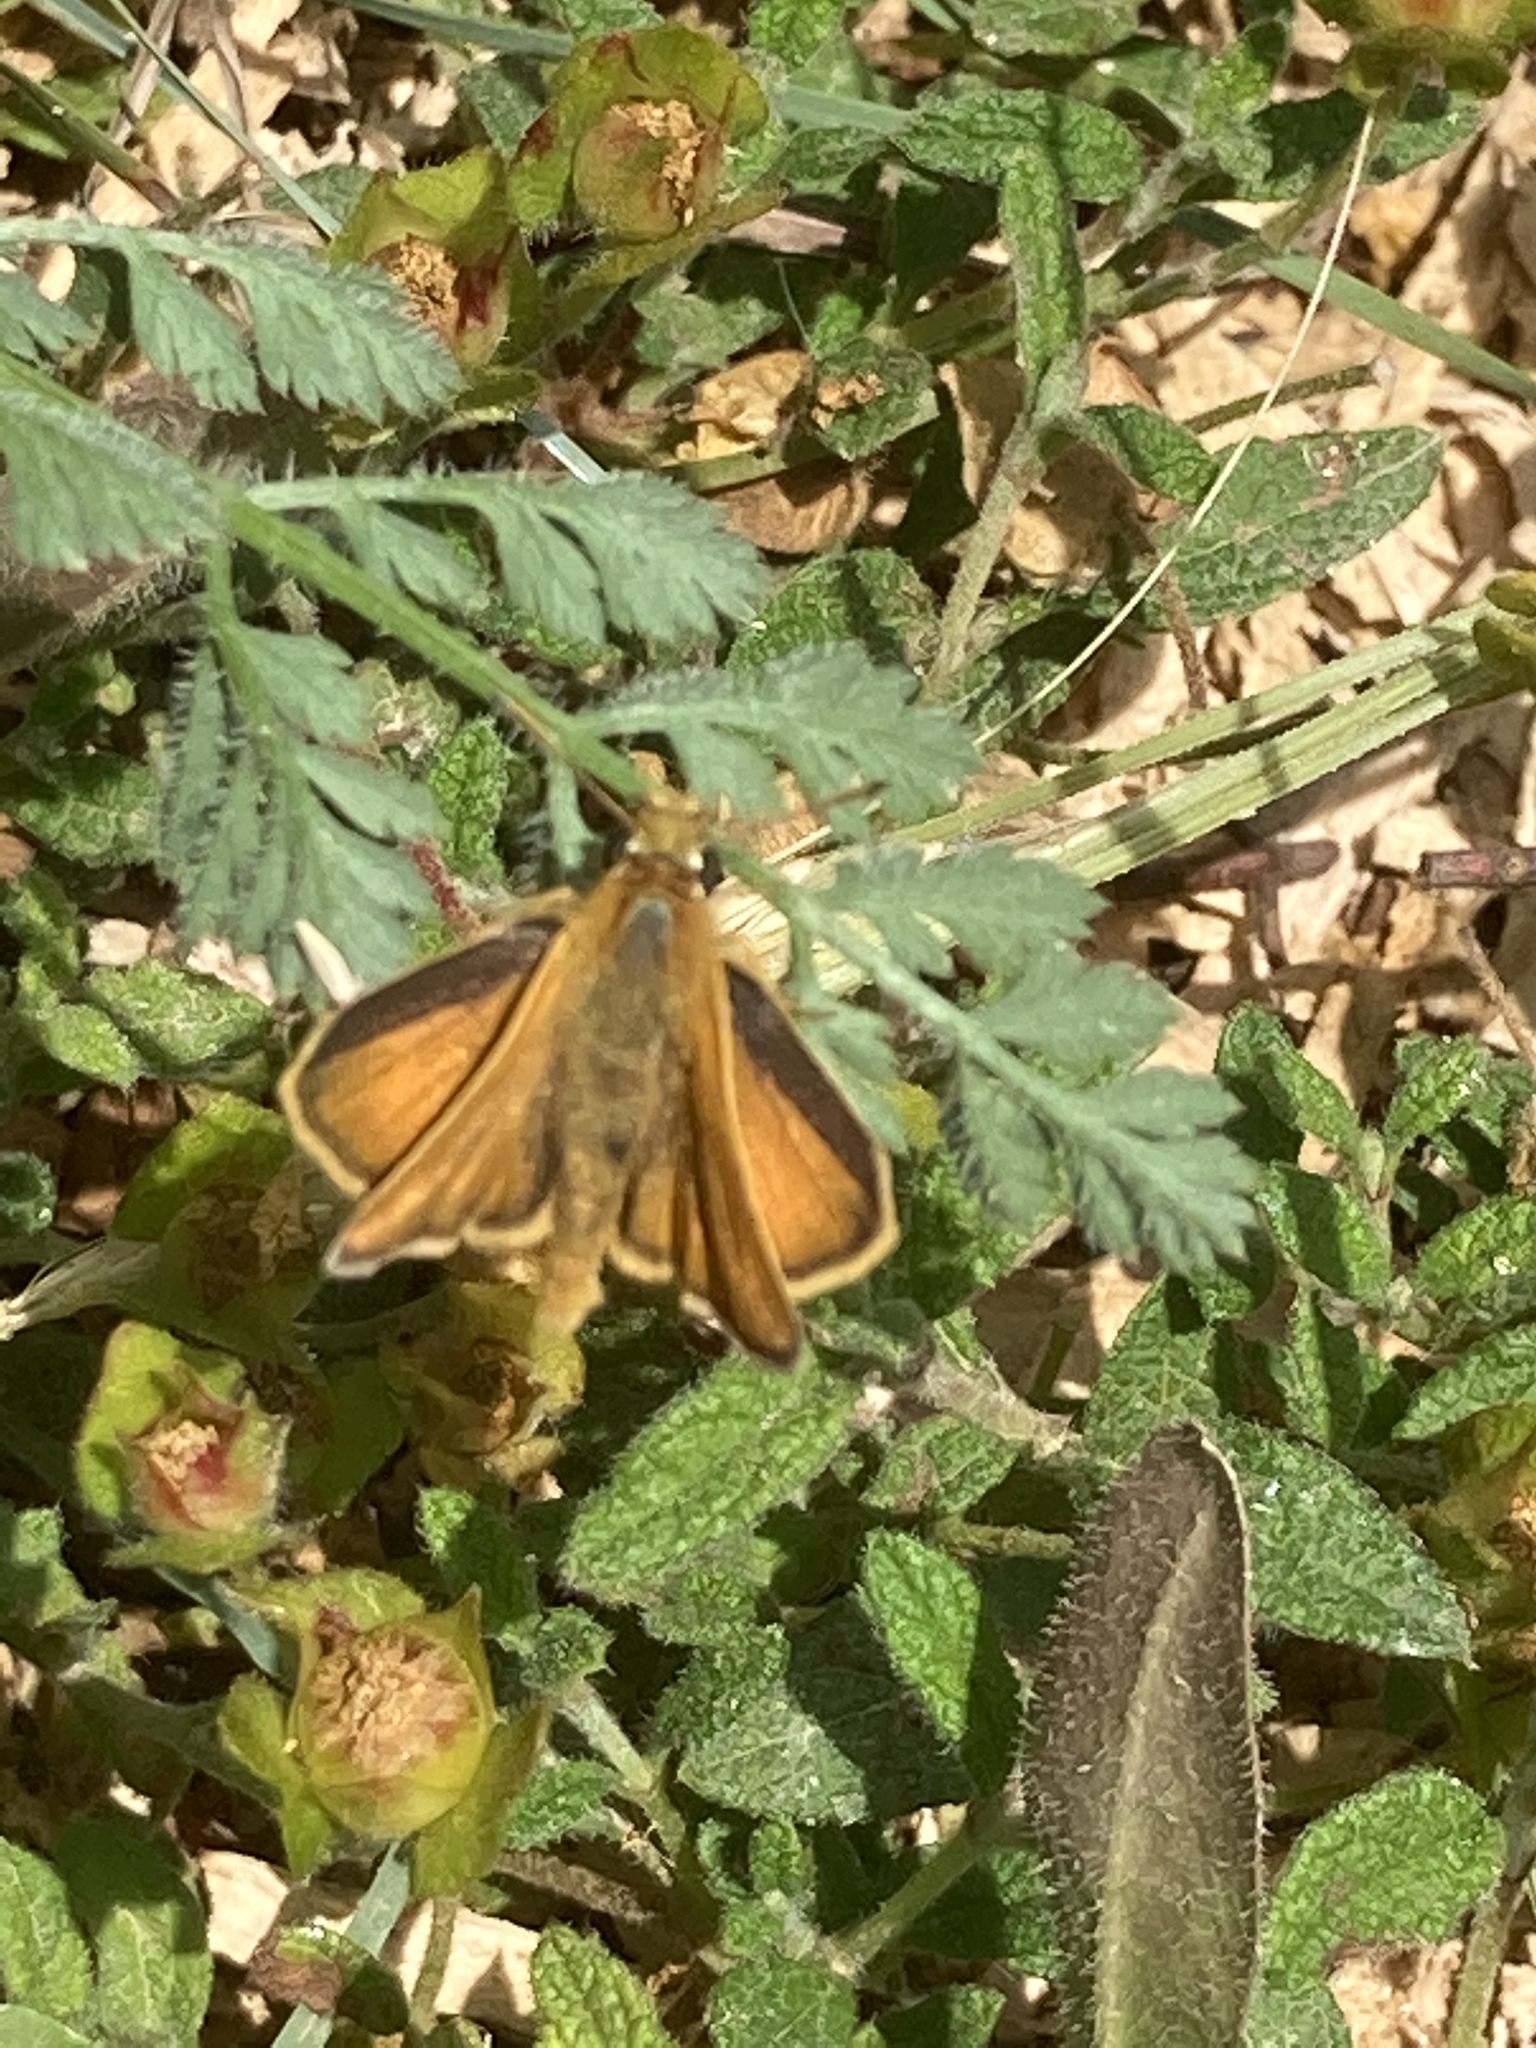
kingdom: Animalia
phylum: Arthropoda
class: Insecta
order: Lepidoptera
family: Hesperiidae
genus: Thymelicus
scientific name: Thymelicus acteon
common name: Lulworth skipper
